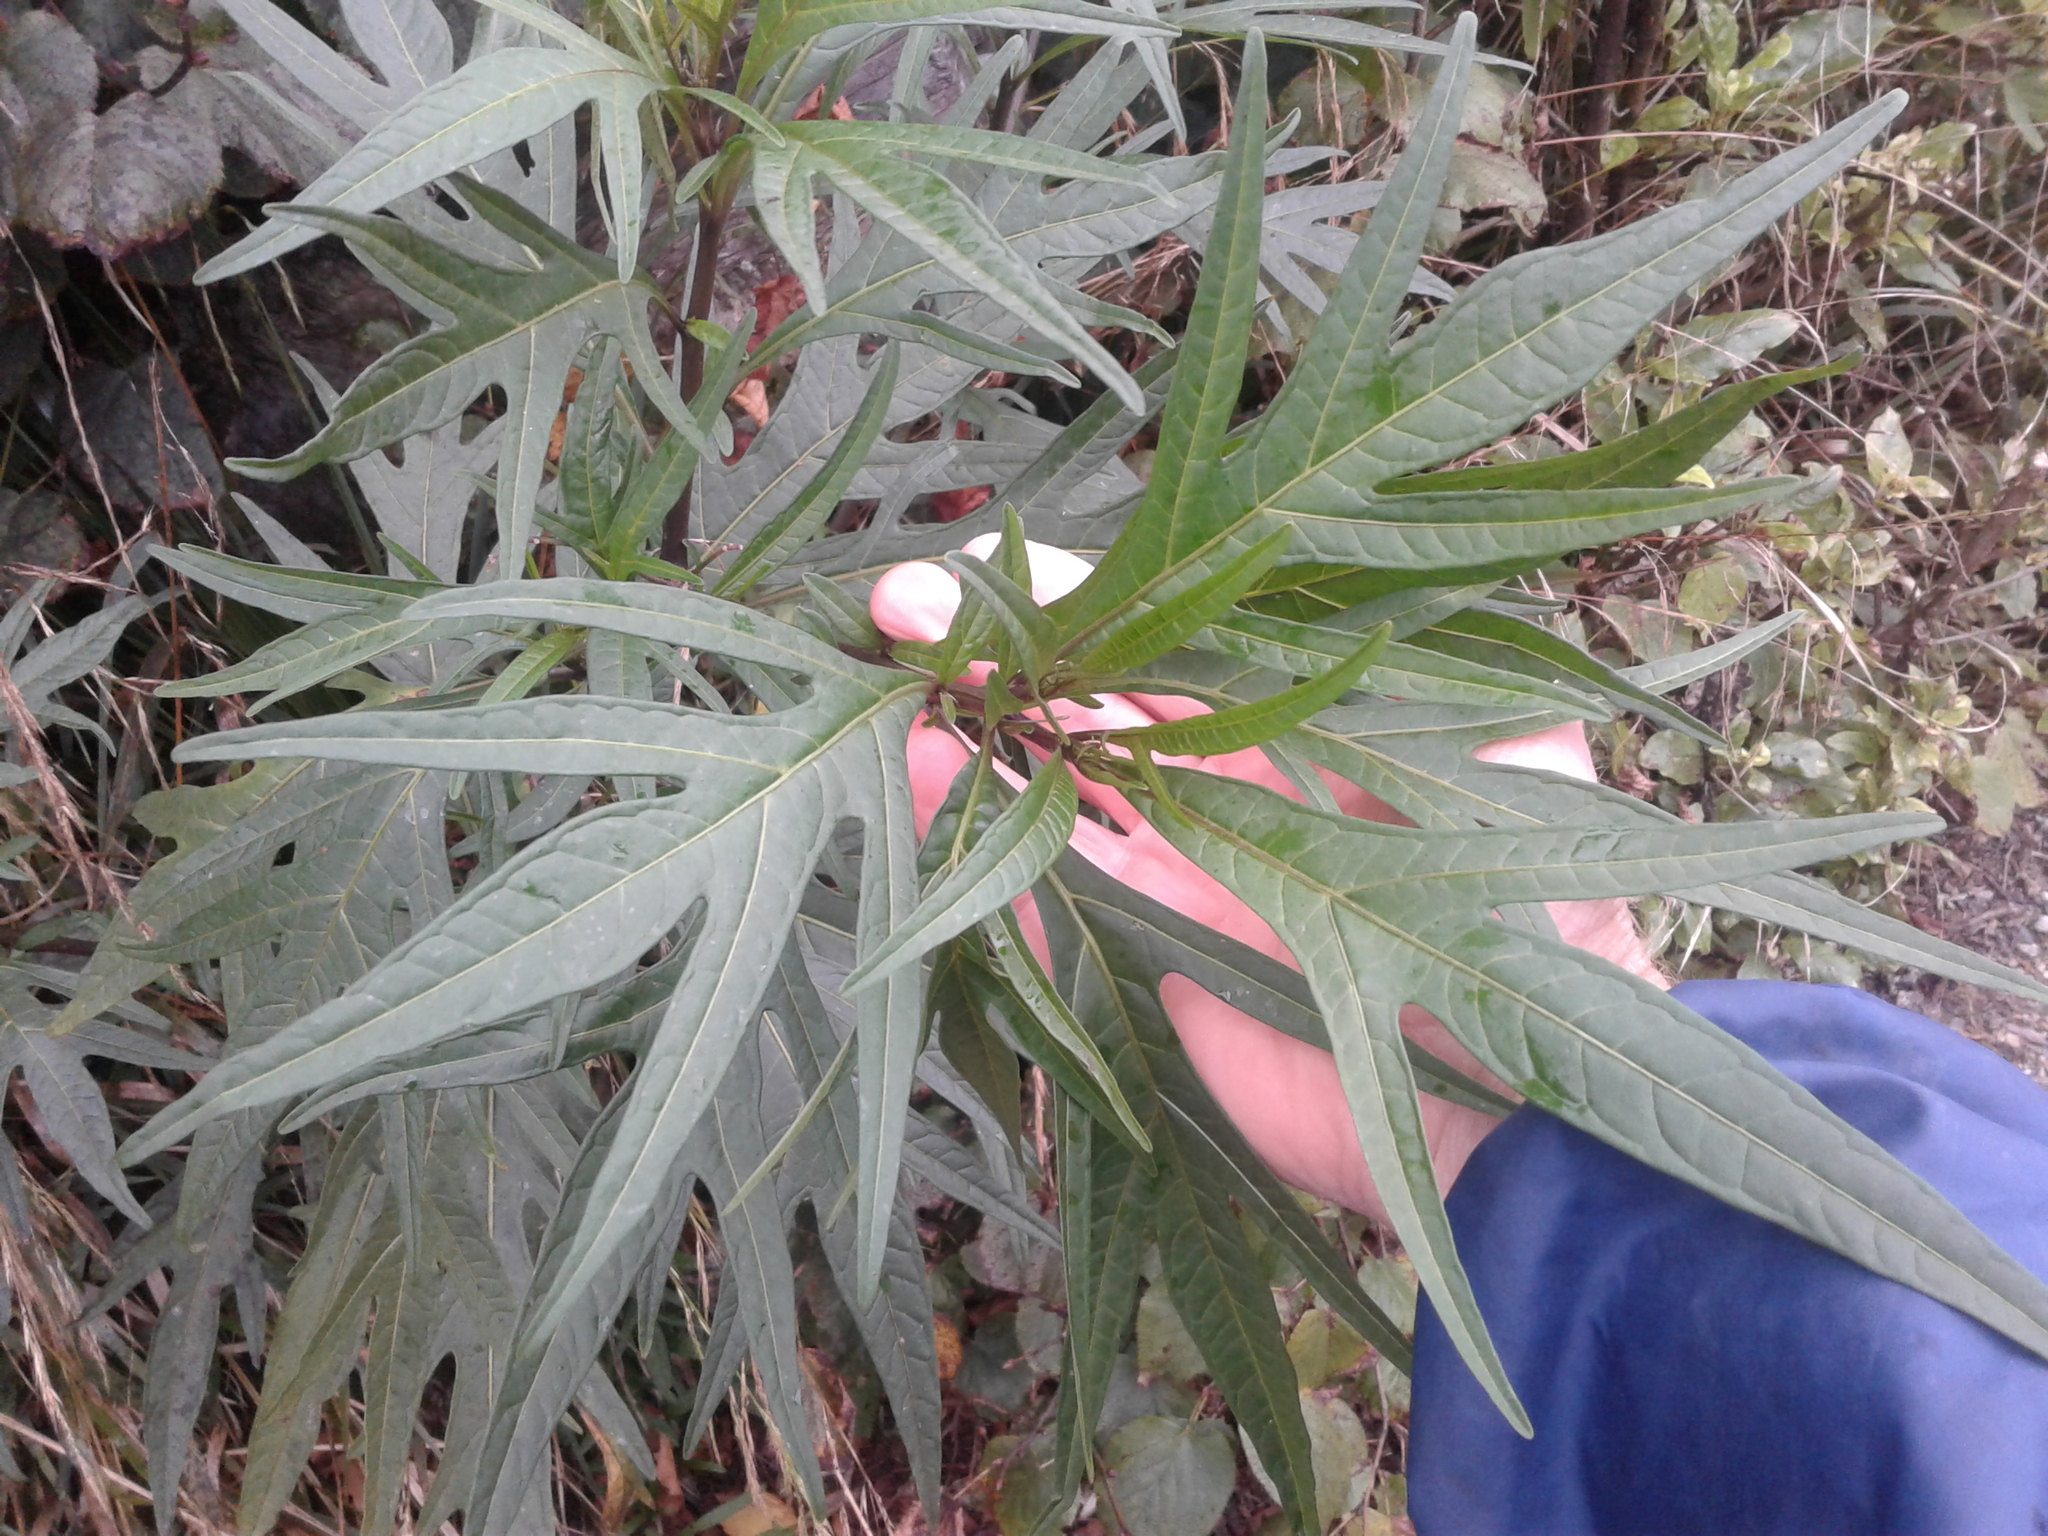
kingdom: Plantae
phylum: Tracheophyta
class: Magnoliopsida
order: Solanales
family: Solanaceae
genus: Solanum
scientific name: Solanum
